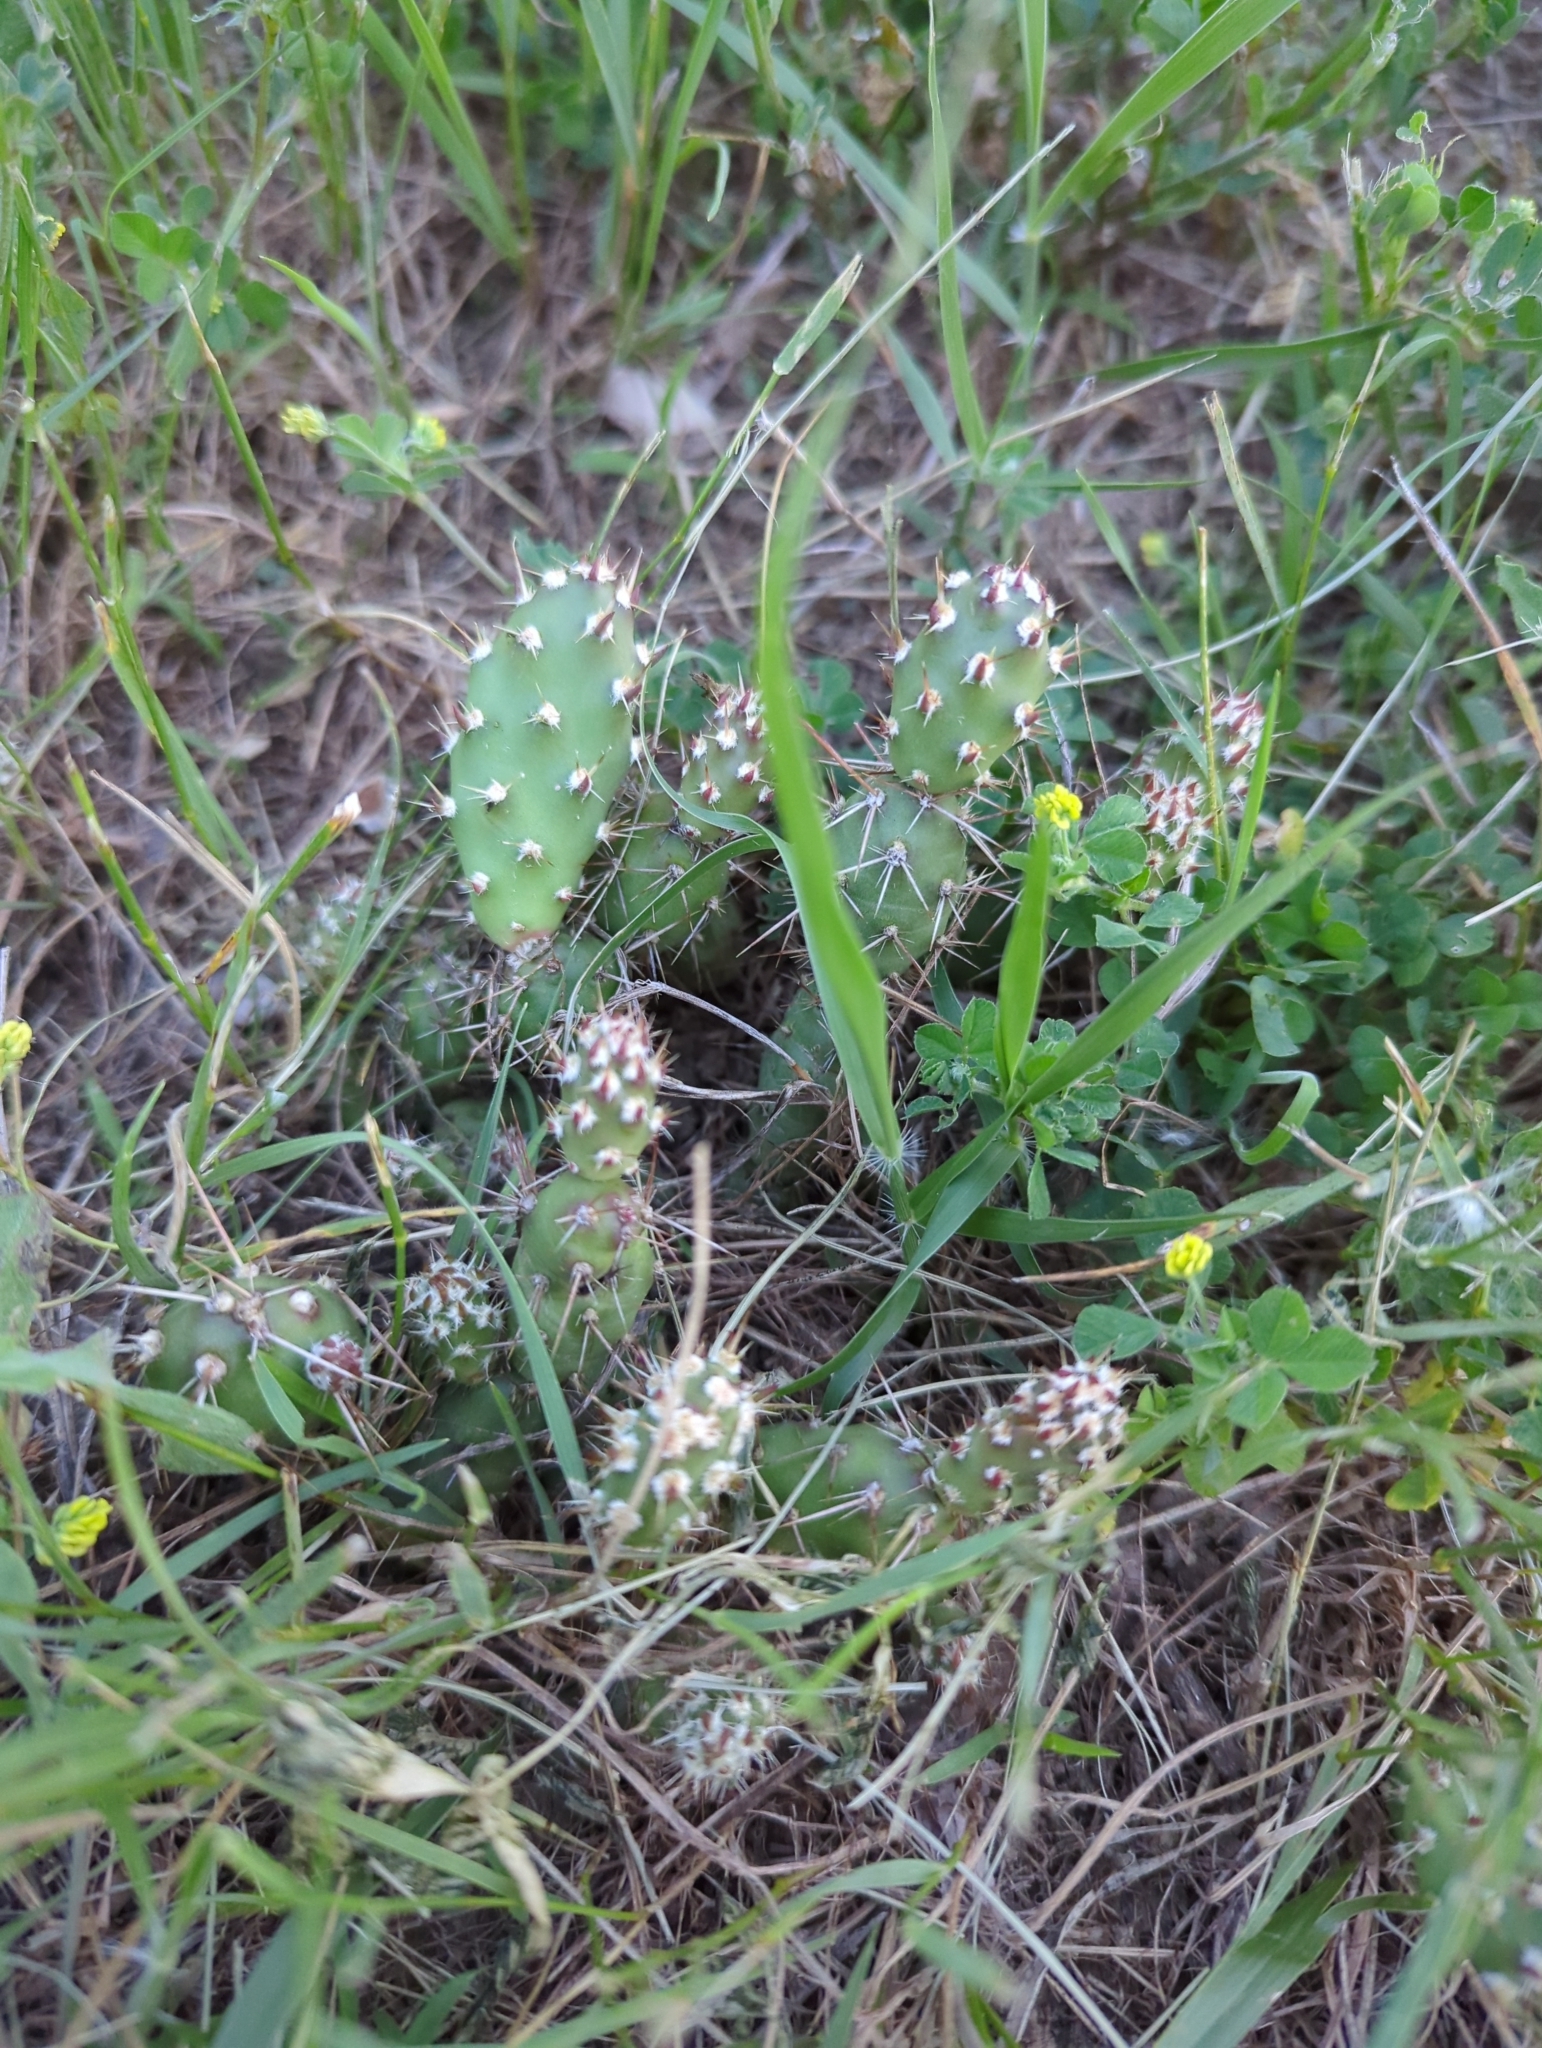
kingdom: Plantae
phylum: Tracheophyta
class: Magnoliopsida
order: Caryophyllales
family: Cactaceae
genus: Opuntia
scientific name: Opuntia fragilis
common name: Brittle cactus
